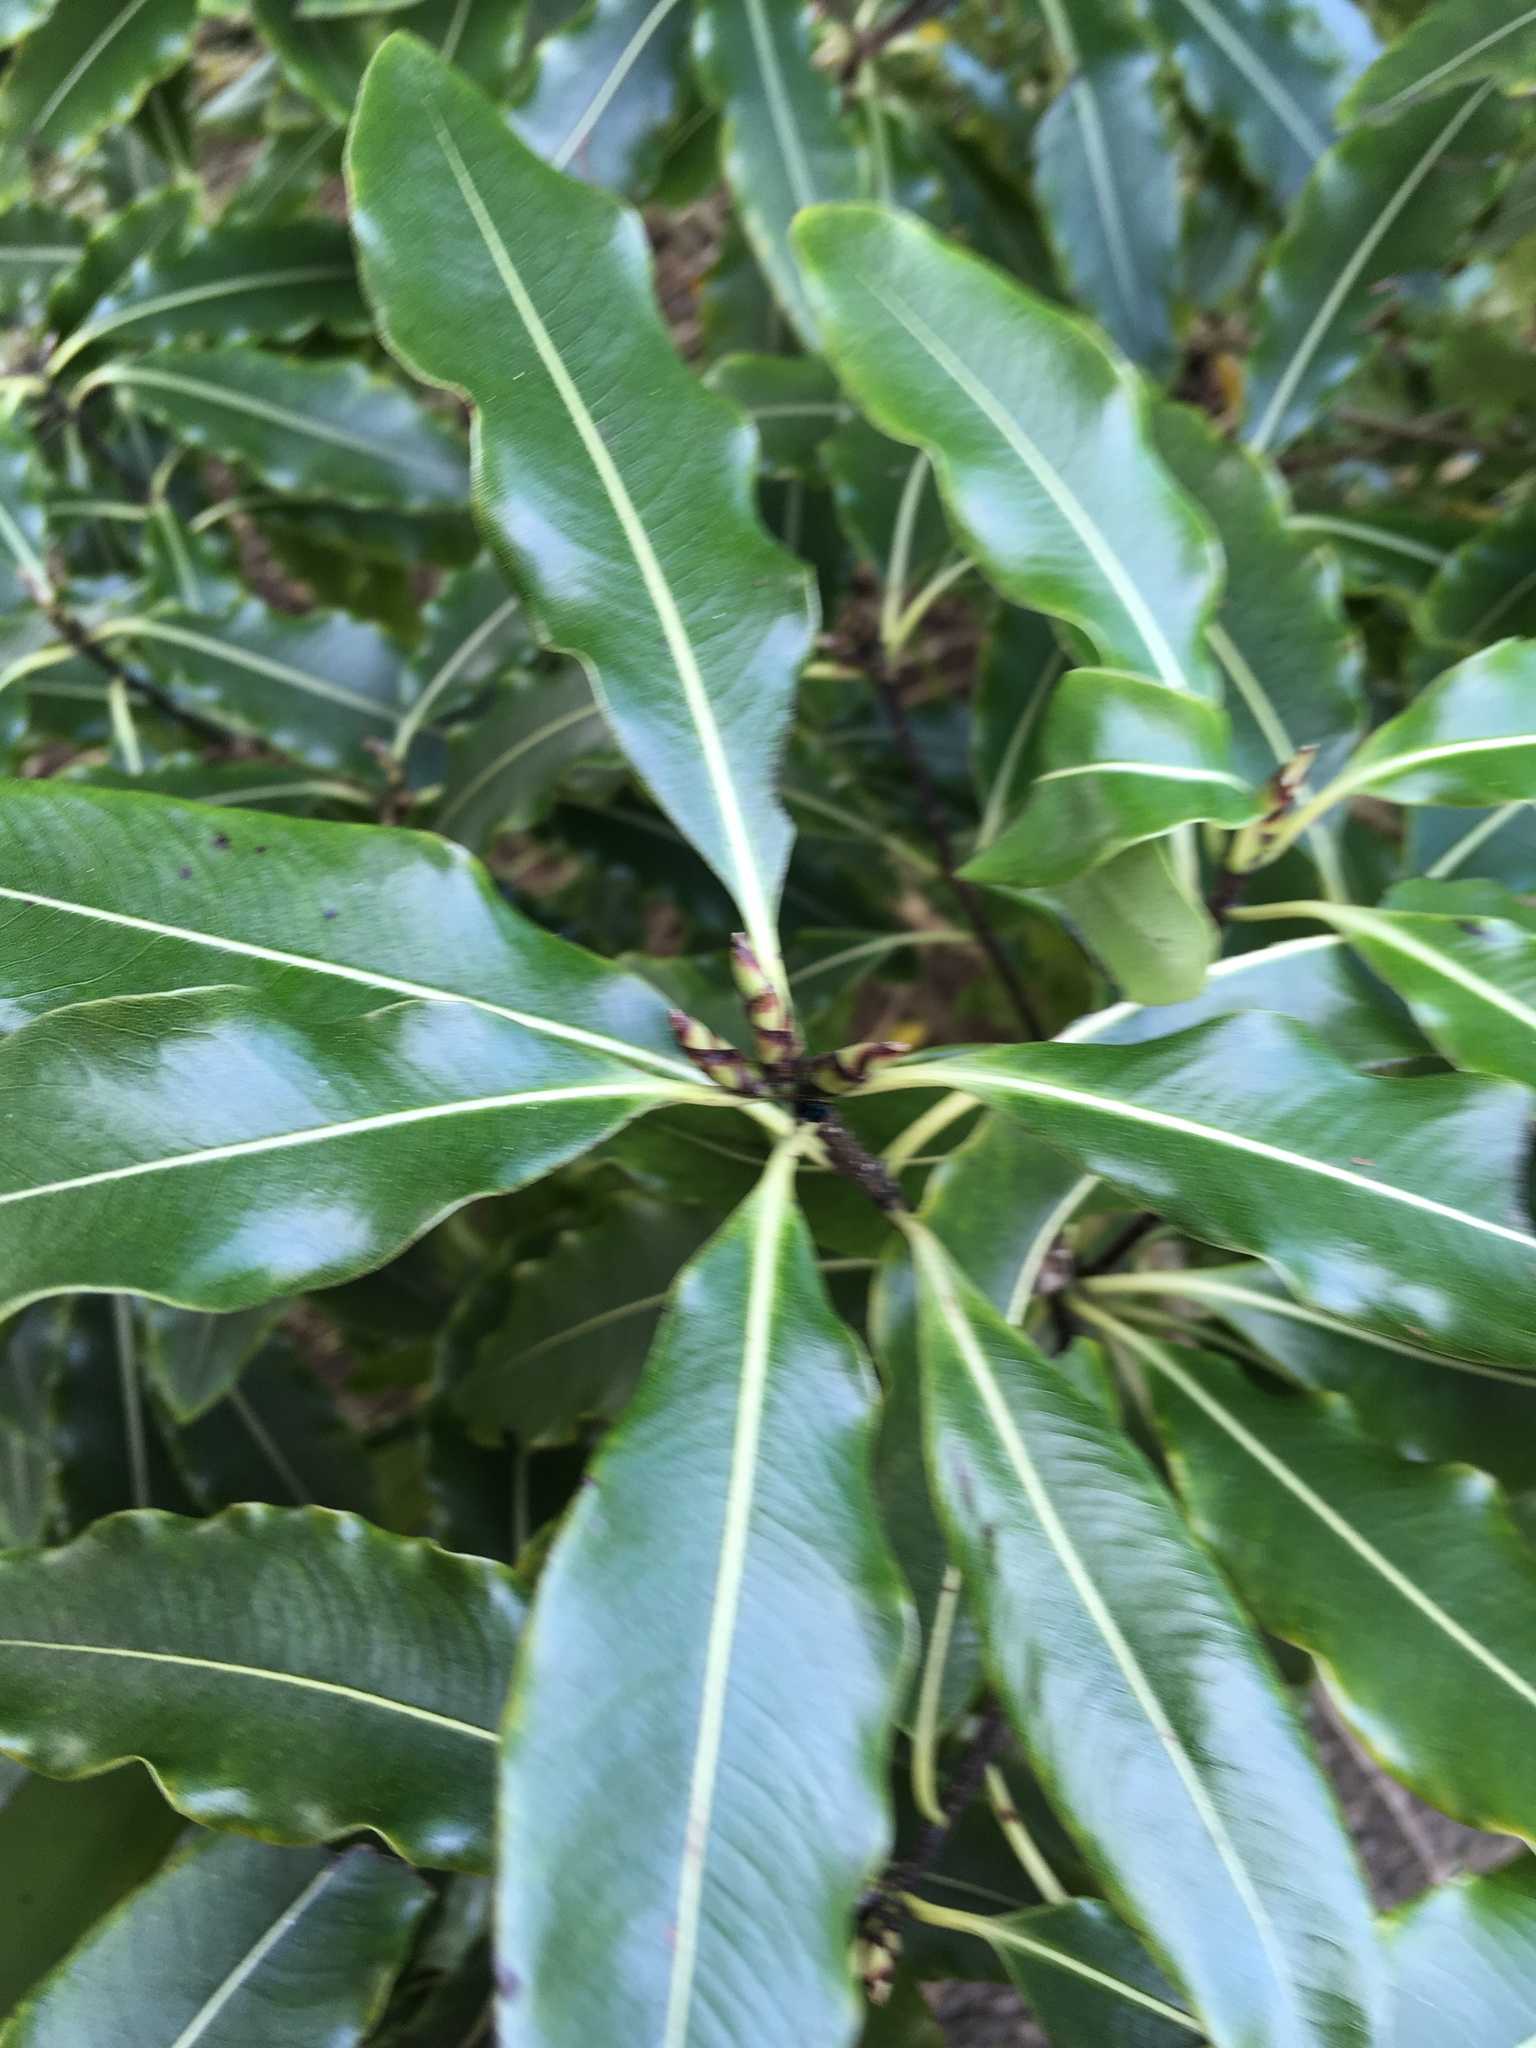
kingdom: Plantae
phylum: Tracheophyta
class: Magnoliopsida
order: Apiales
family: Pittosporaceae
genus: Pittosporum
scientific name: Pittosporum eugenioides
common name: Lemonwood
